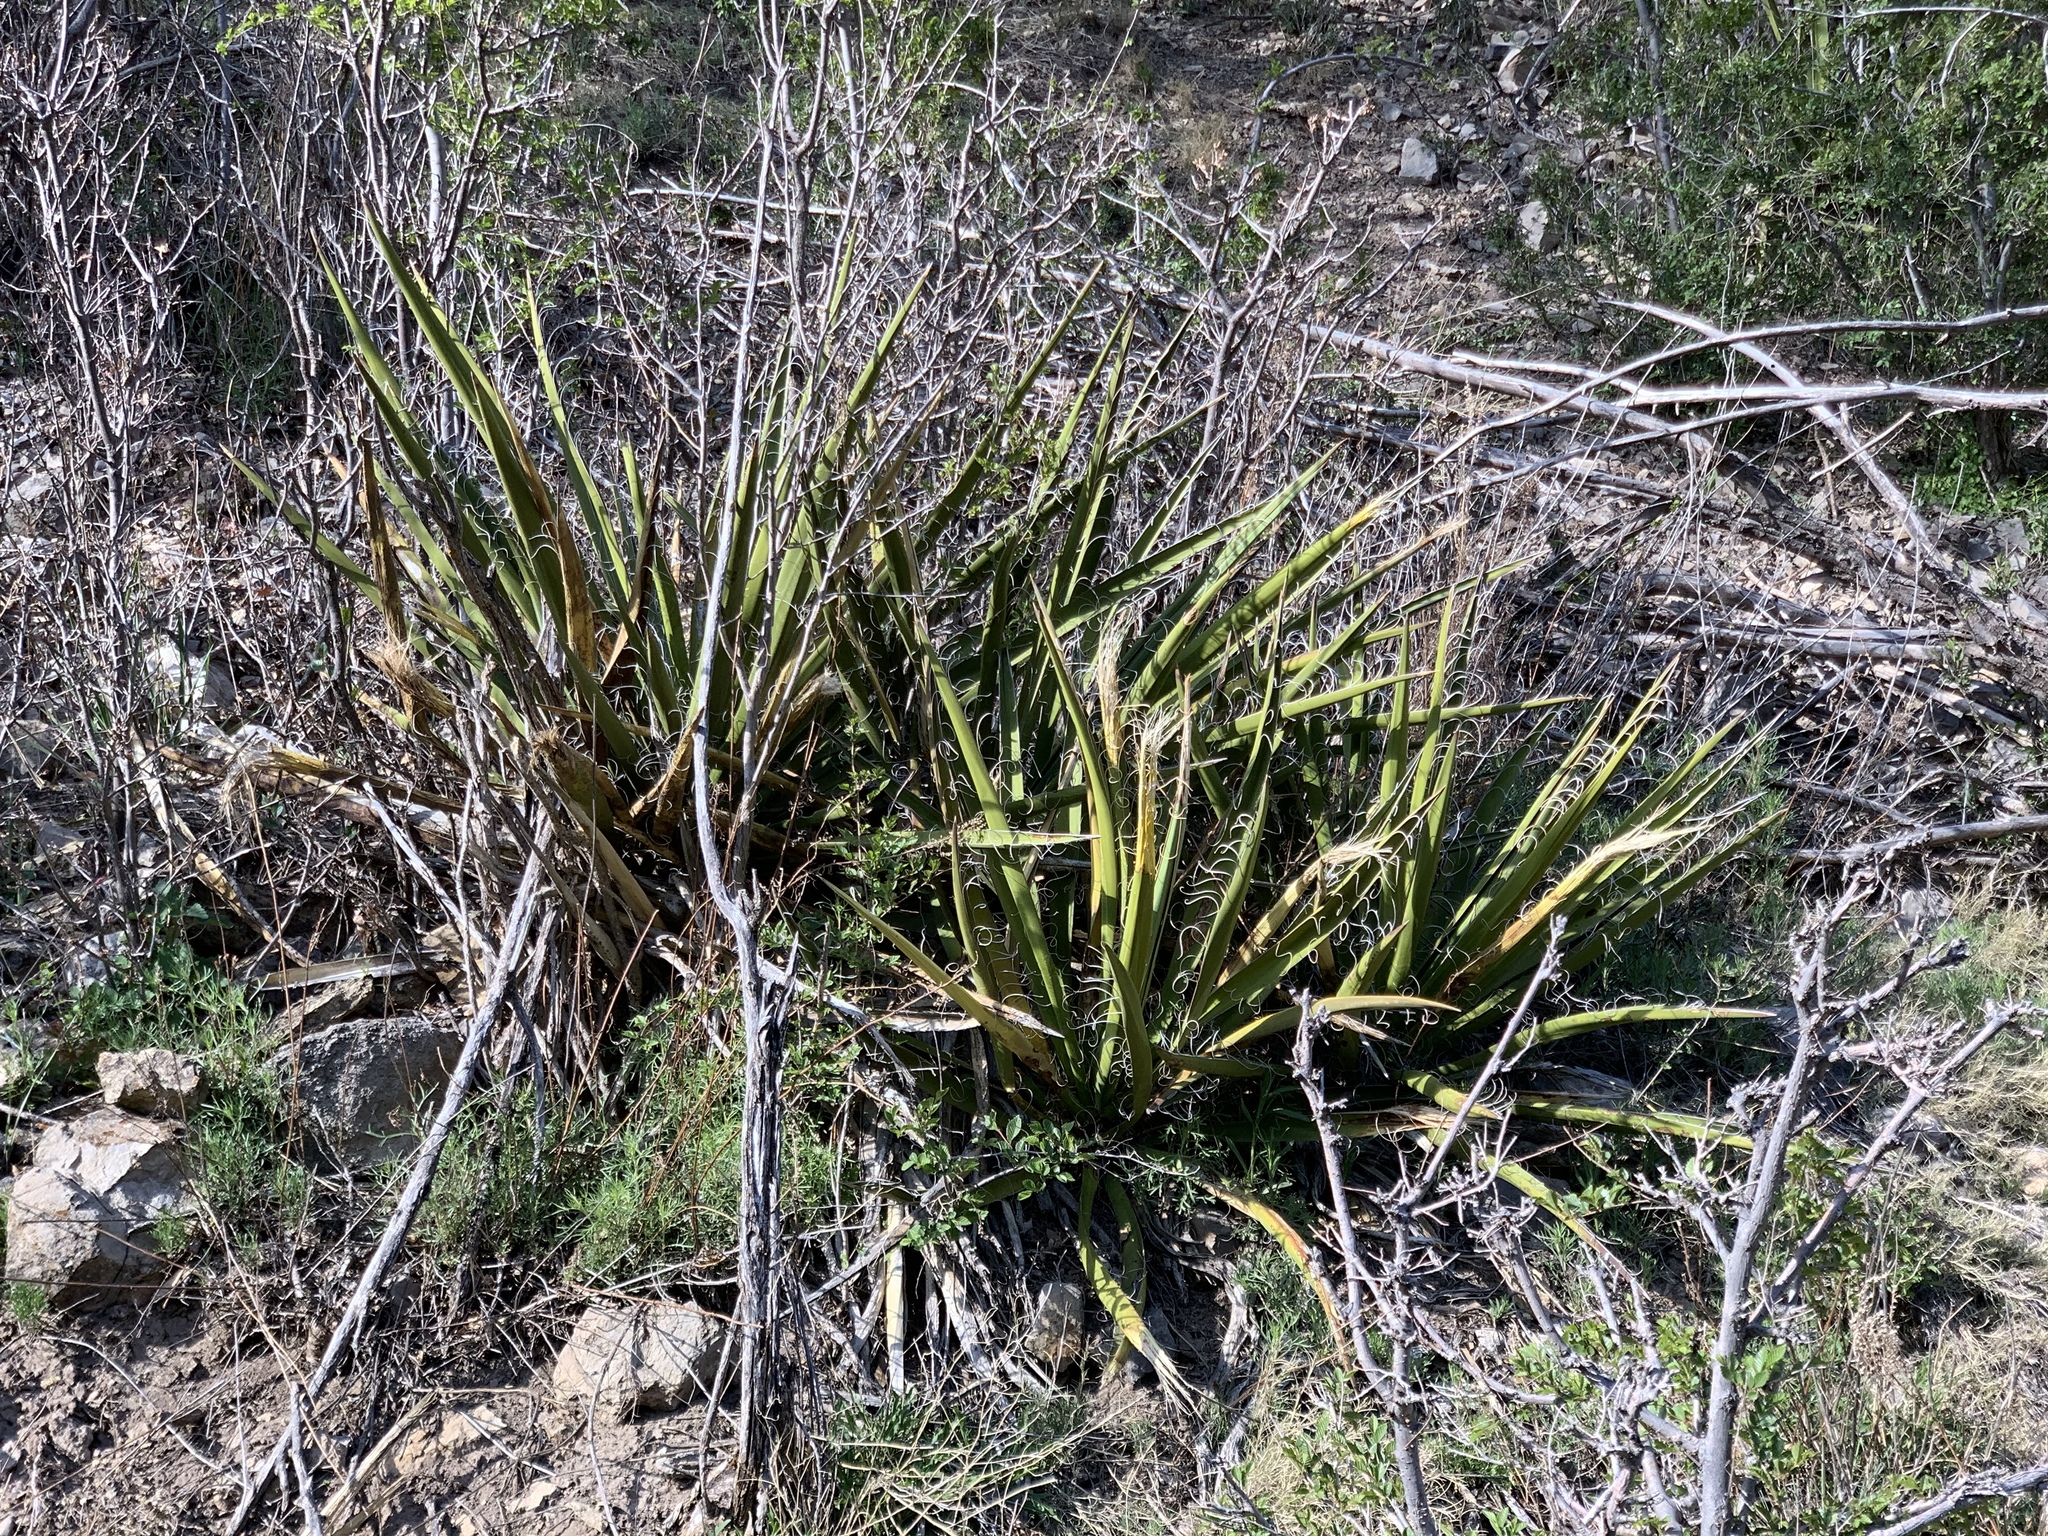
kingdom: Plantae
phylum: Tracheophyta
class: Liliopsida
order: Asparagales
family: Asparagaceae
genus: Yucca
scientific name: Yucca baccata
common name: Banana yucca
